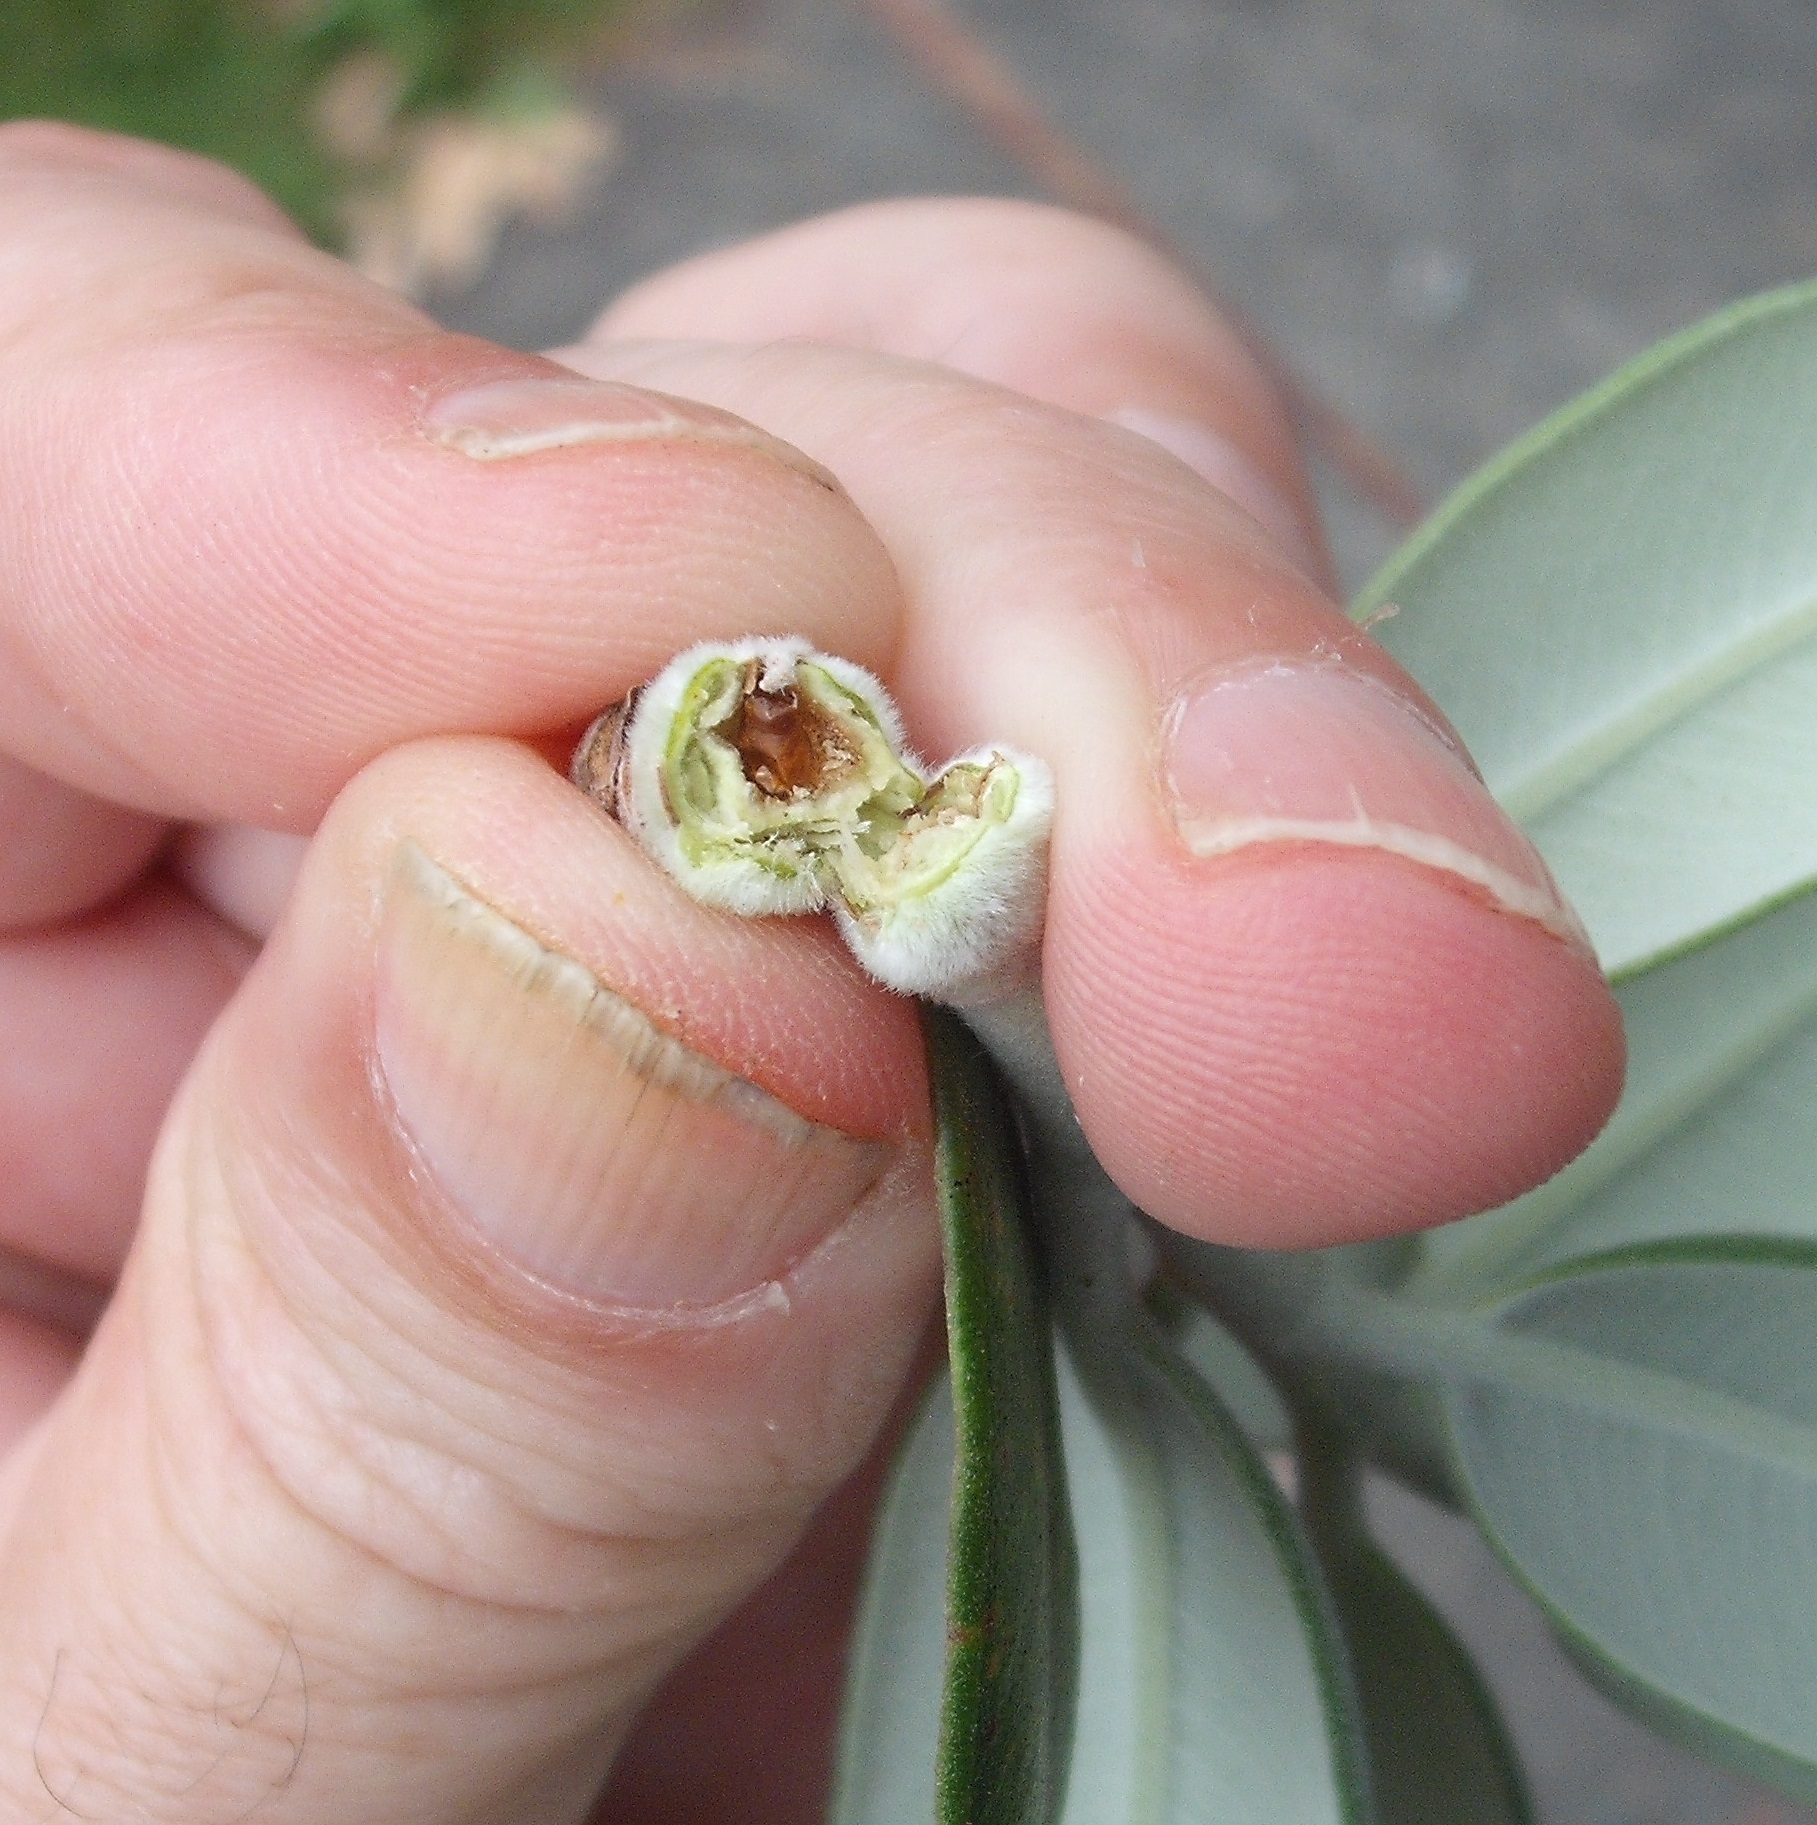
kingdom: Animalia
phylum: Arthropoda
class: Insecta
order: Diptera
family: Fergusoninidae
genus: Fergusonina
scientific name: Fergusonina metrosiderosi
